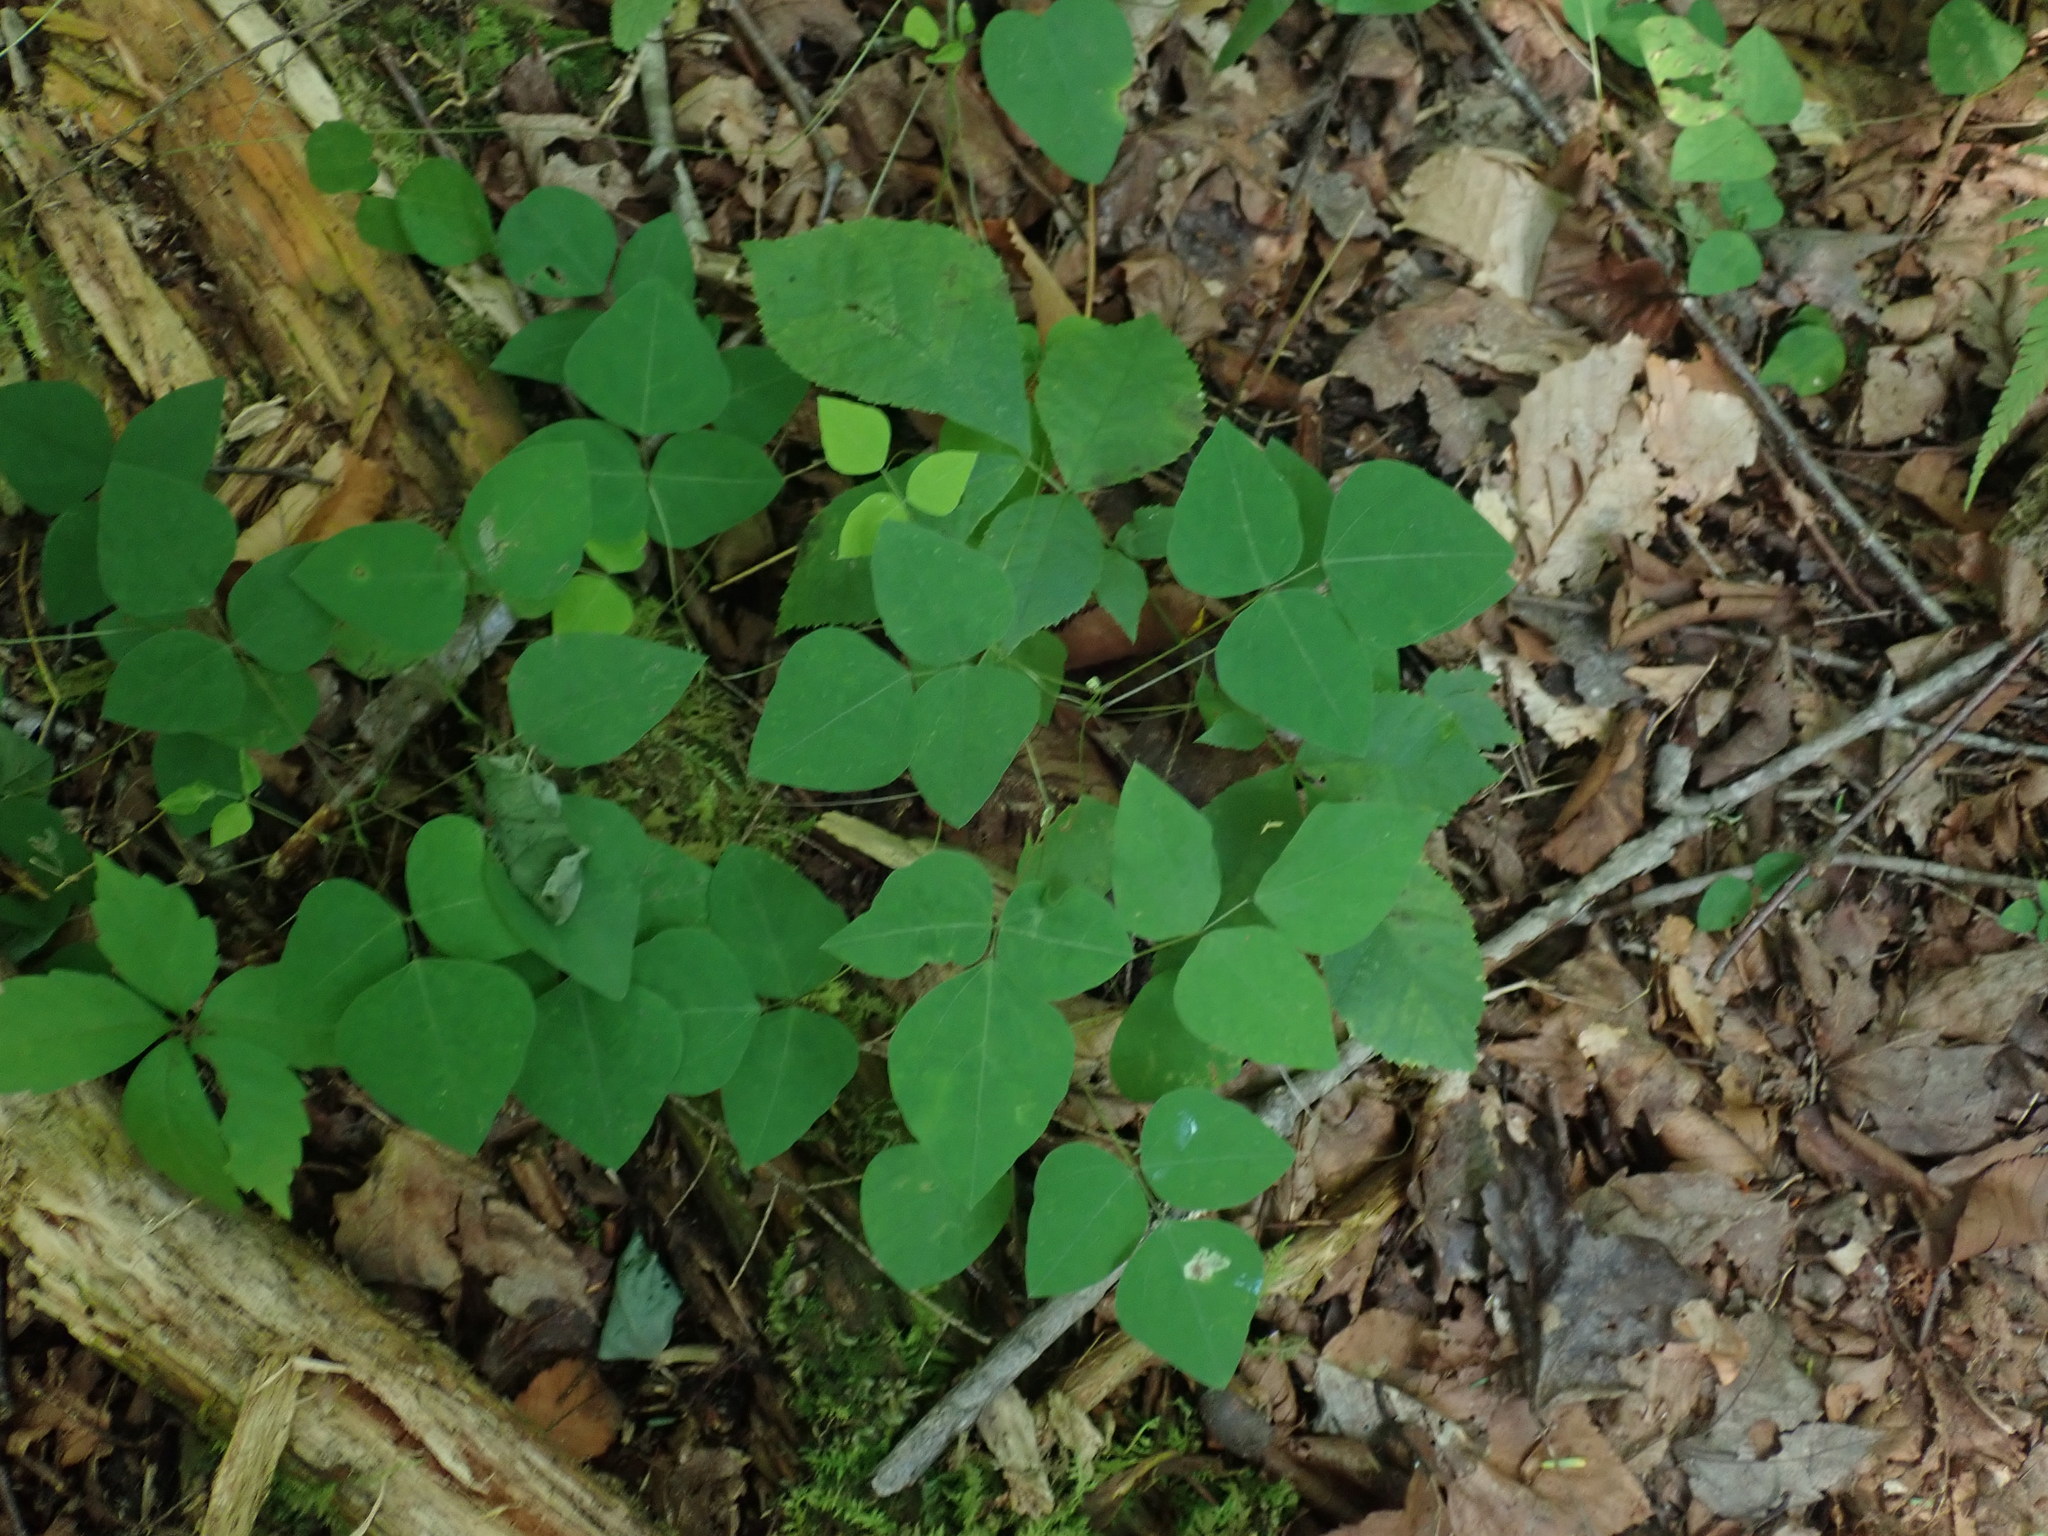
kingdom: Plantae
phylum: Tracheophyta
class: Magnoliopsida
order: Fabales
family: Fabaceae
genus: Amphicarpaea
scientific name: Amphicarpaea bracteata
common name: American hog peanut
